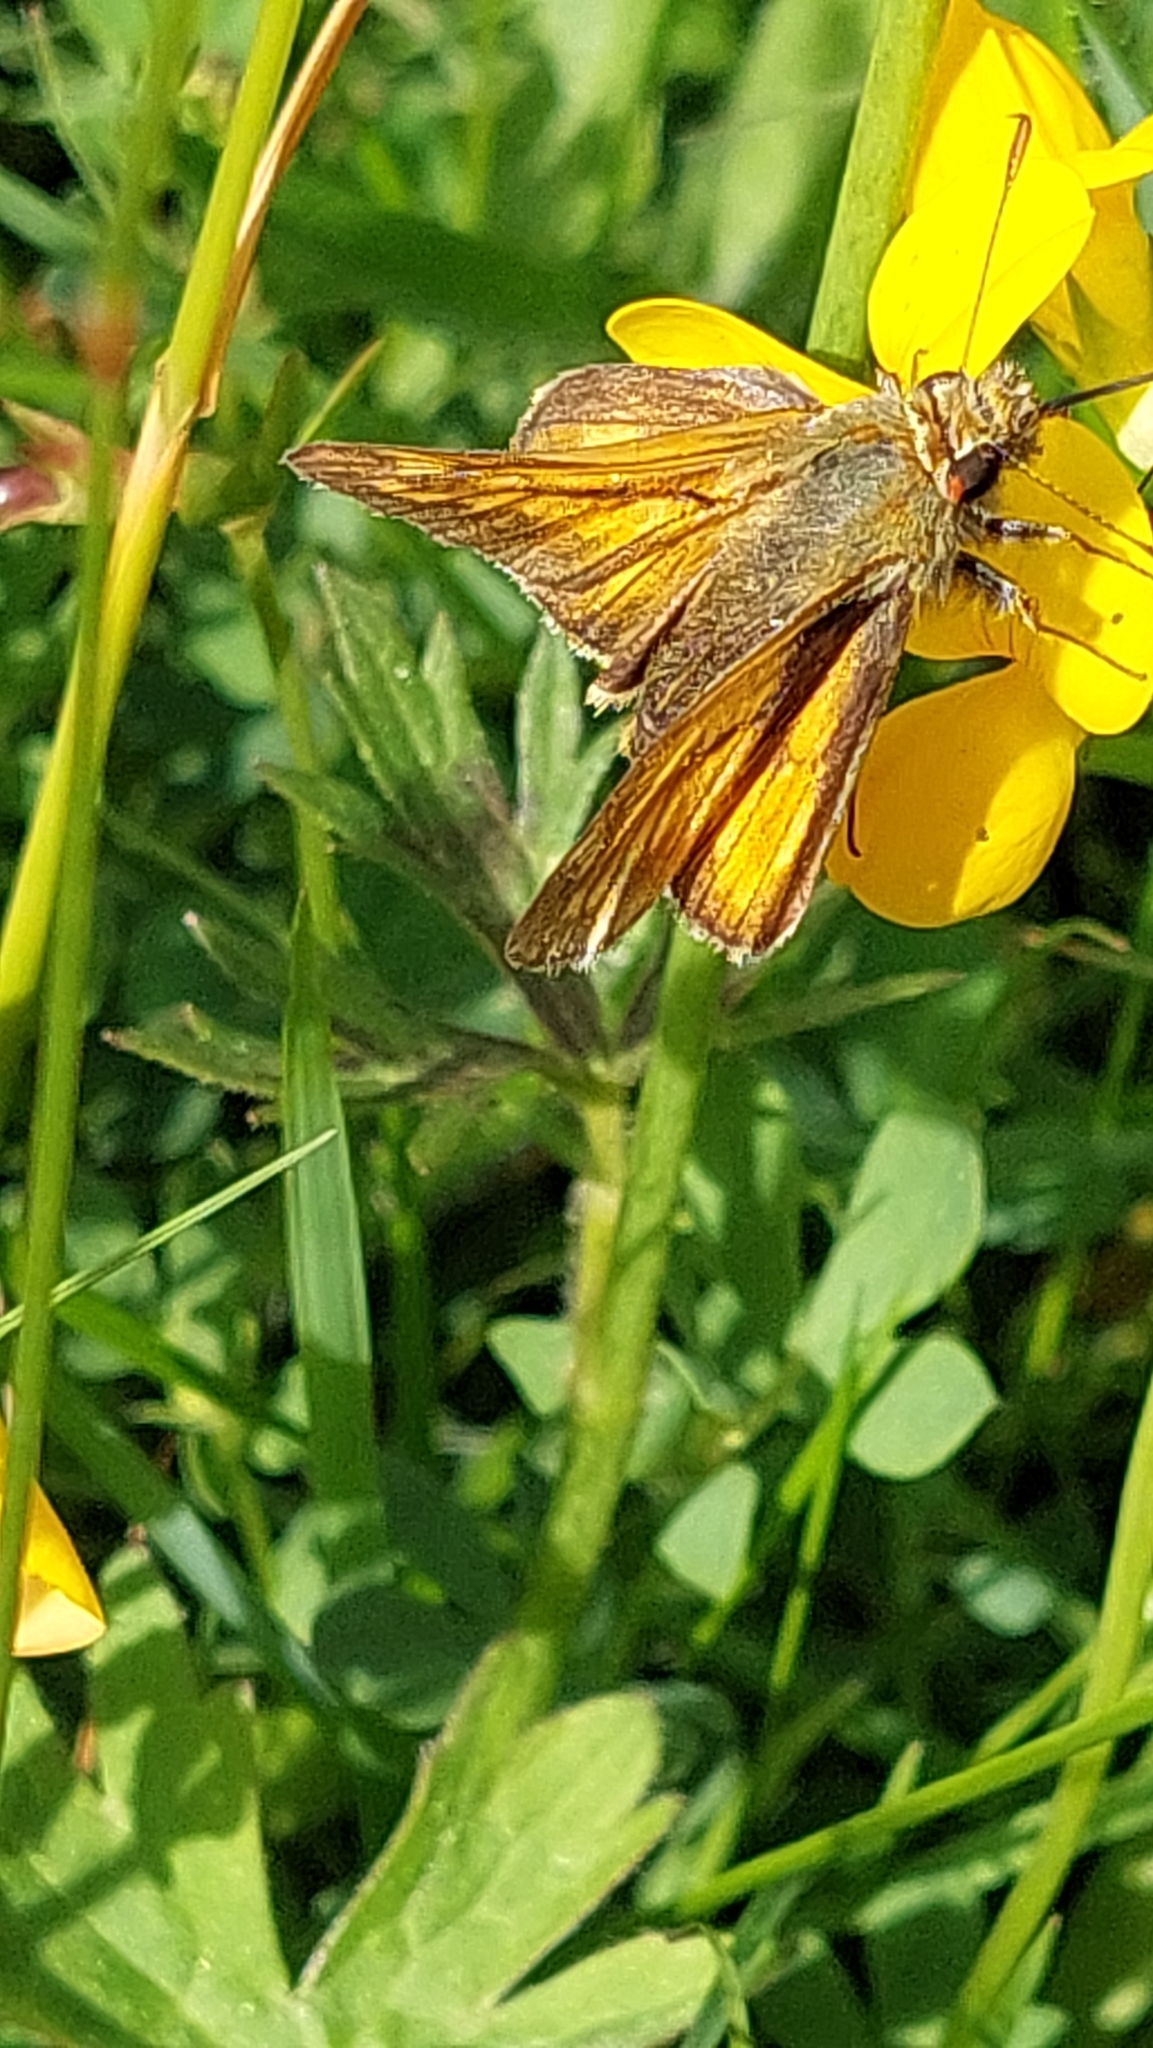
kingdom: Animalia
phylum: Arthropoda
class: Insecta
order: Lepidoptera
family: Hesperiidae
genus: Ochlodes
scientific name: Ochlodes venata
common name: Large skipper
